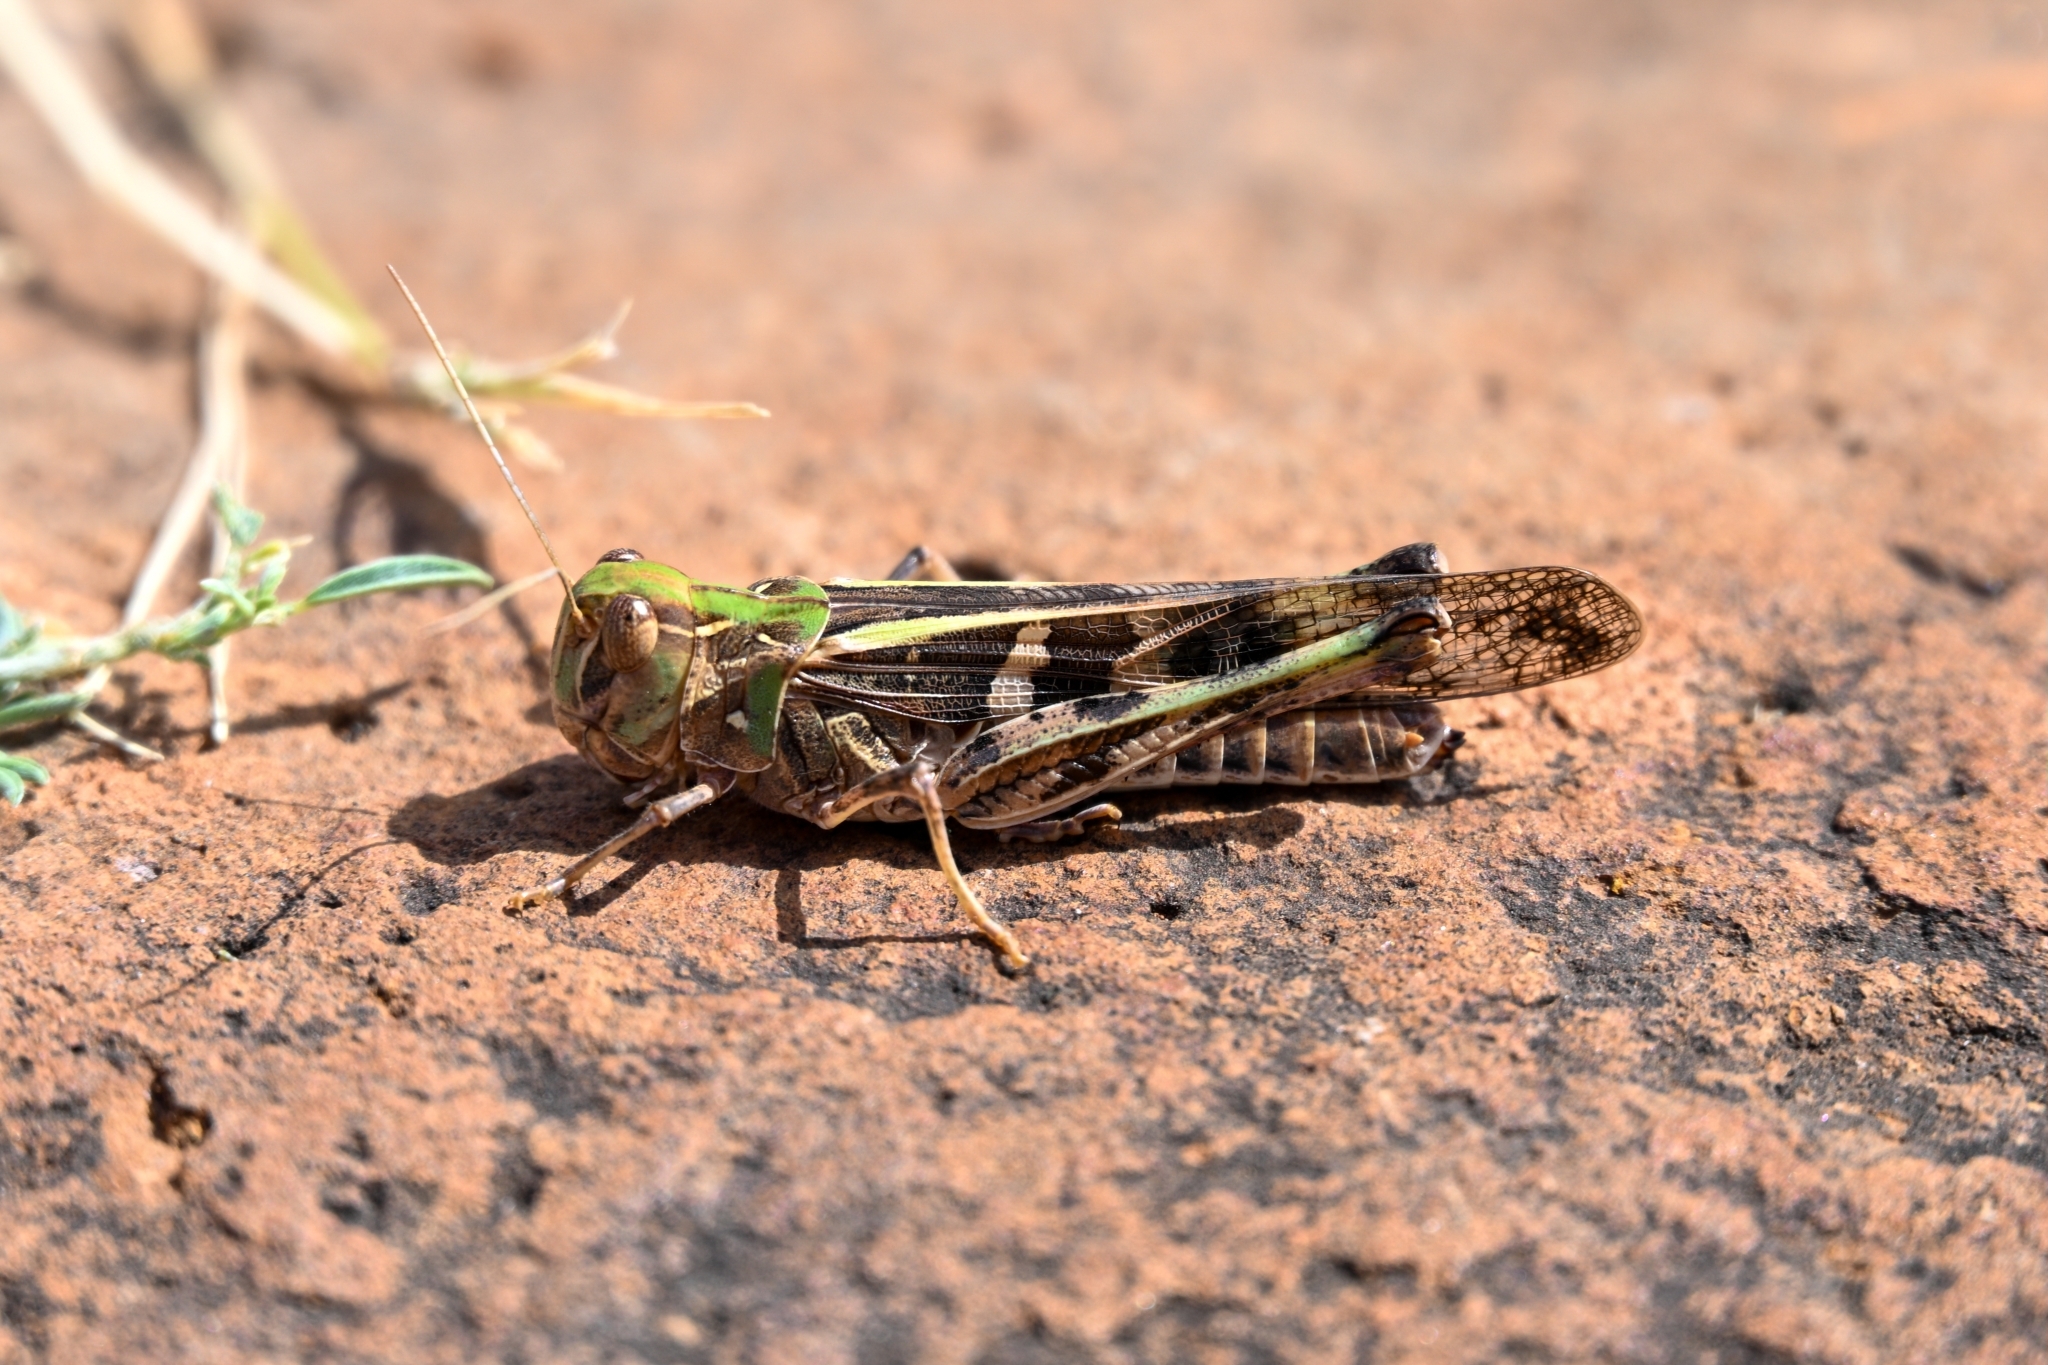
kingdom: Animalia
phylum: Arthropoda
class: Insecta
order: Orthoptera
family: Acrididae
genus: Oedaleus
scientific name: Oedaleus senegalensis
